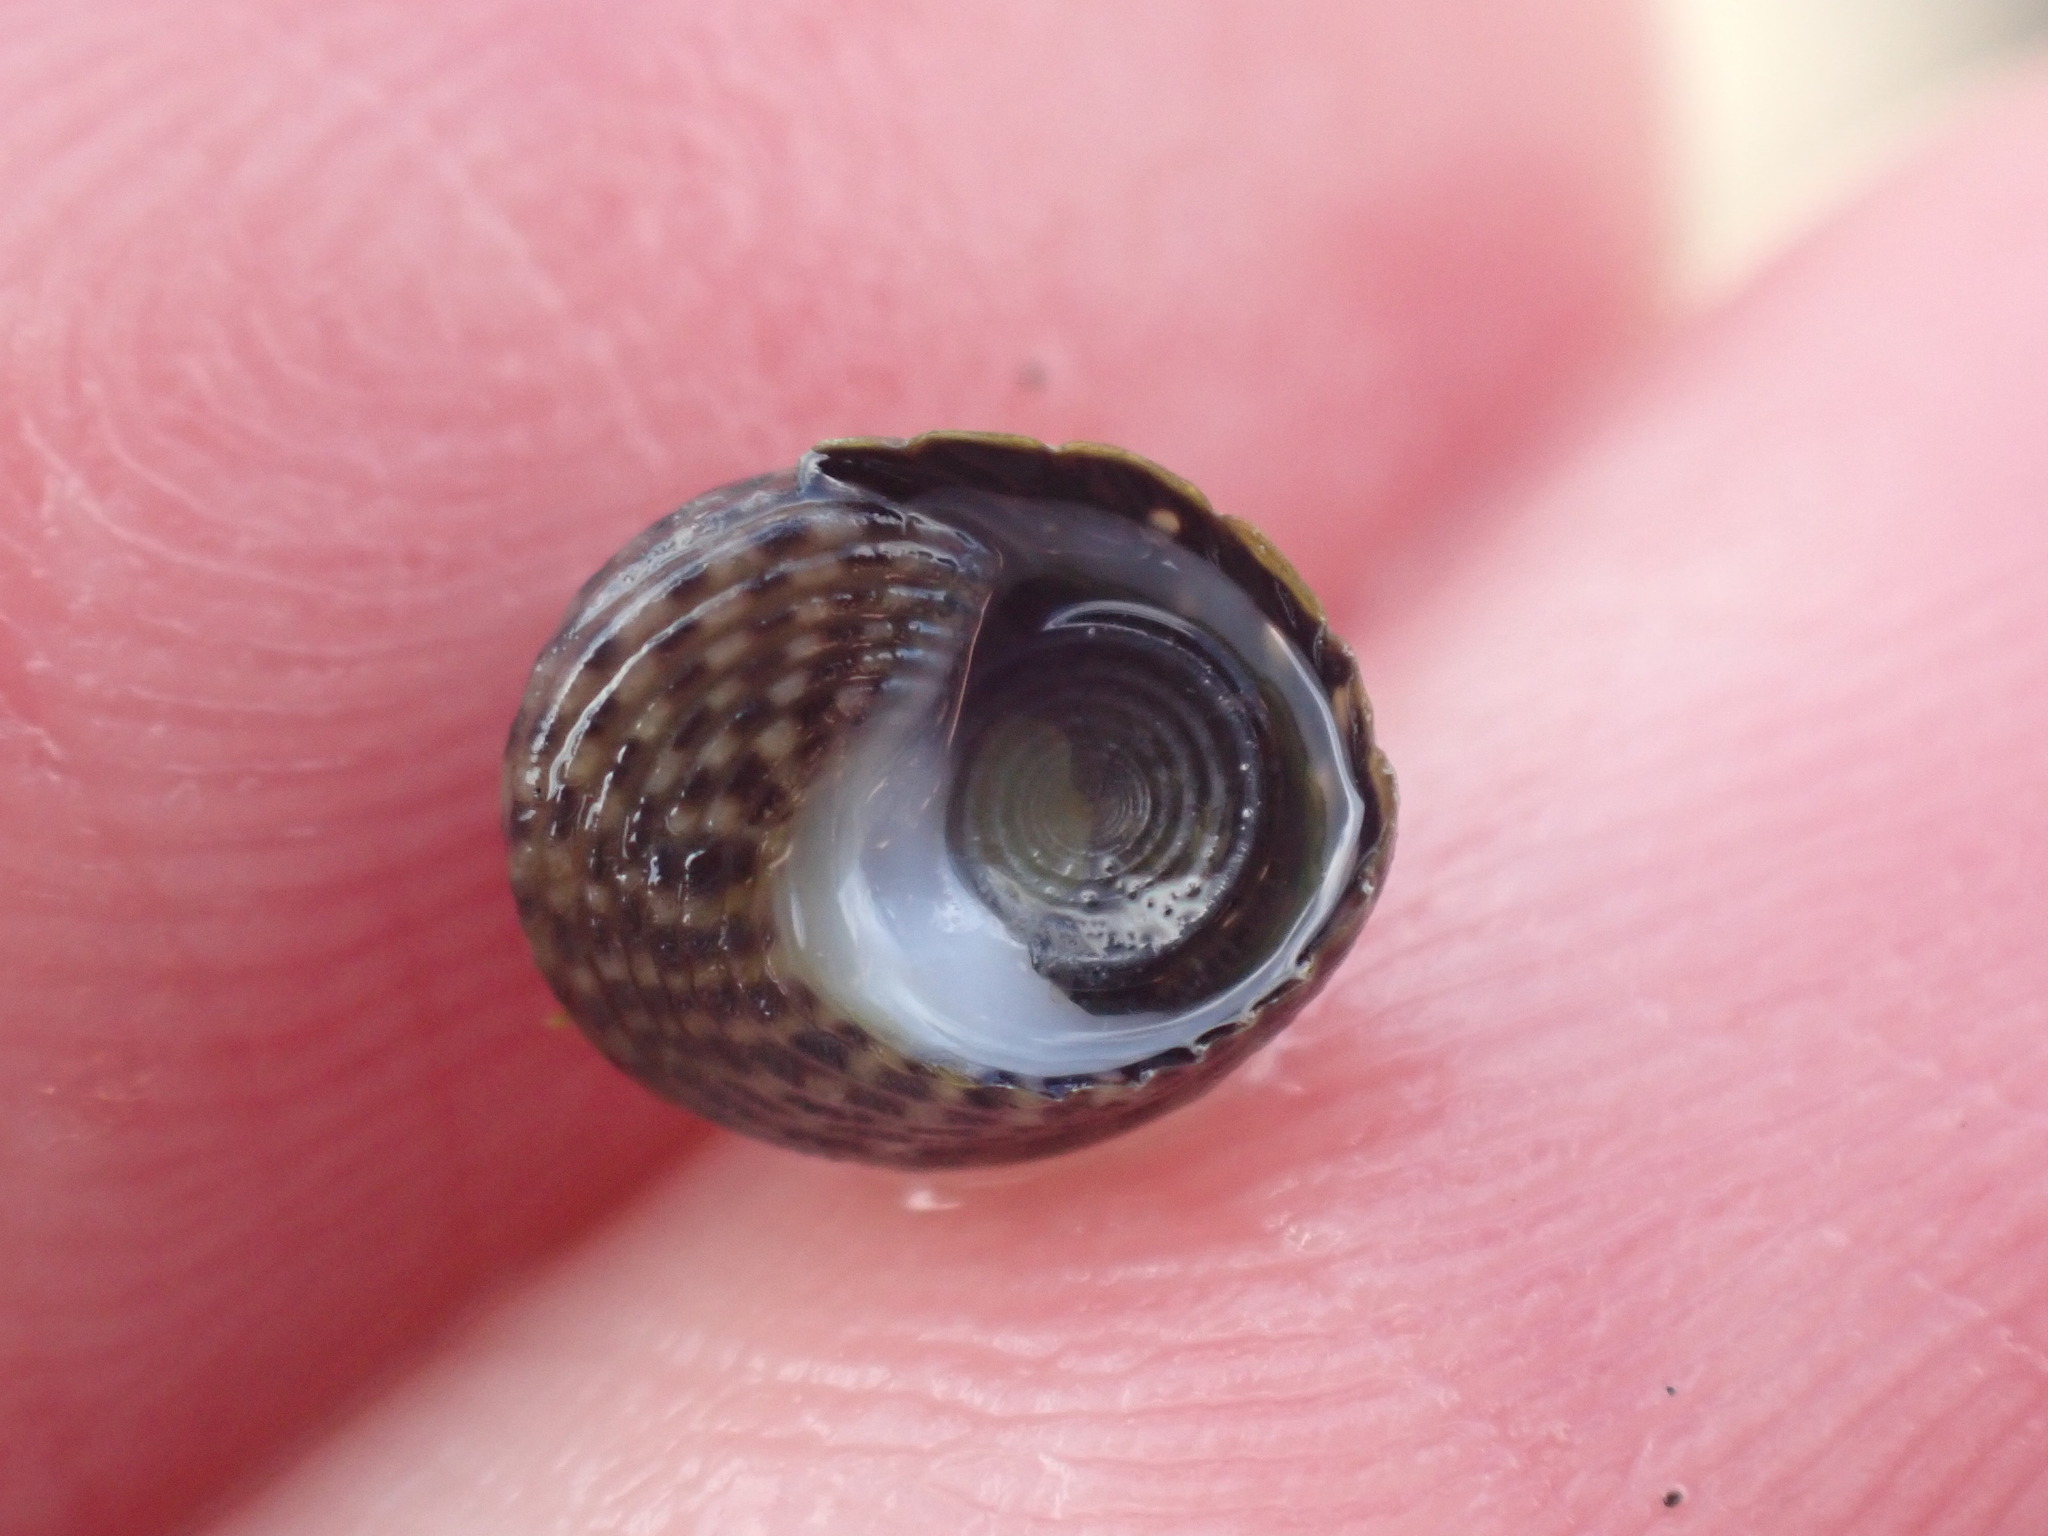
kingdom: Animalia
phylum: Mollusca
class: Gastropoda
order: Trochida
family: Trochidae
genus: Diloma
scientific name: Diloma aethiops
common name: Scorched monodont
